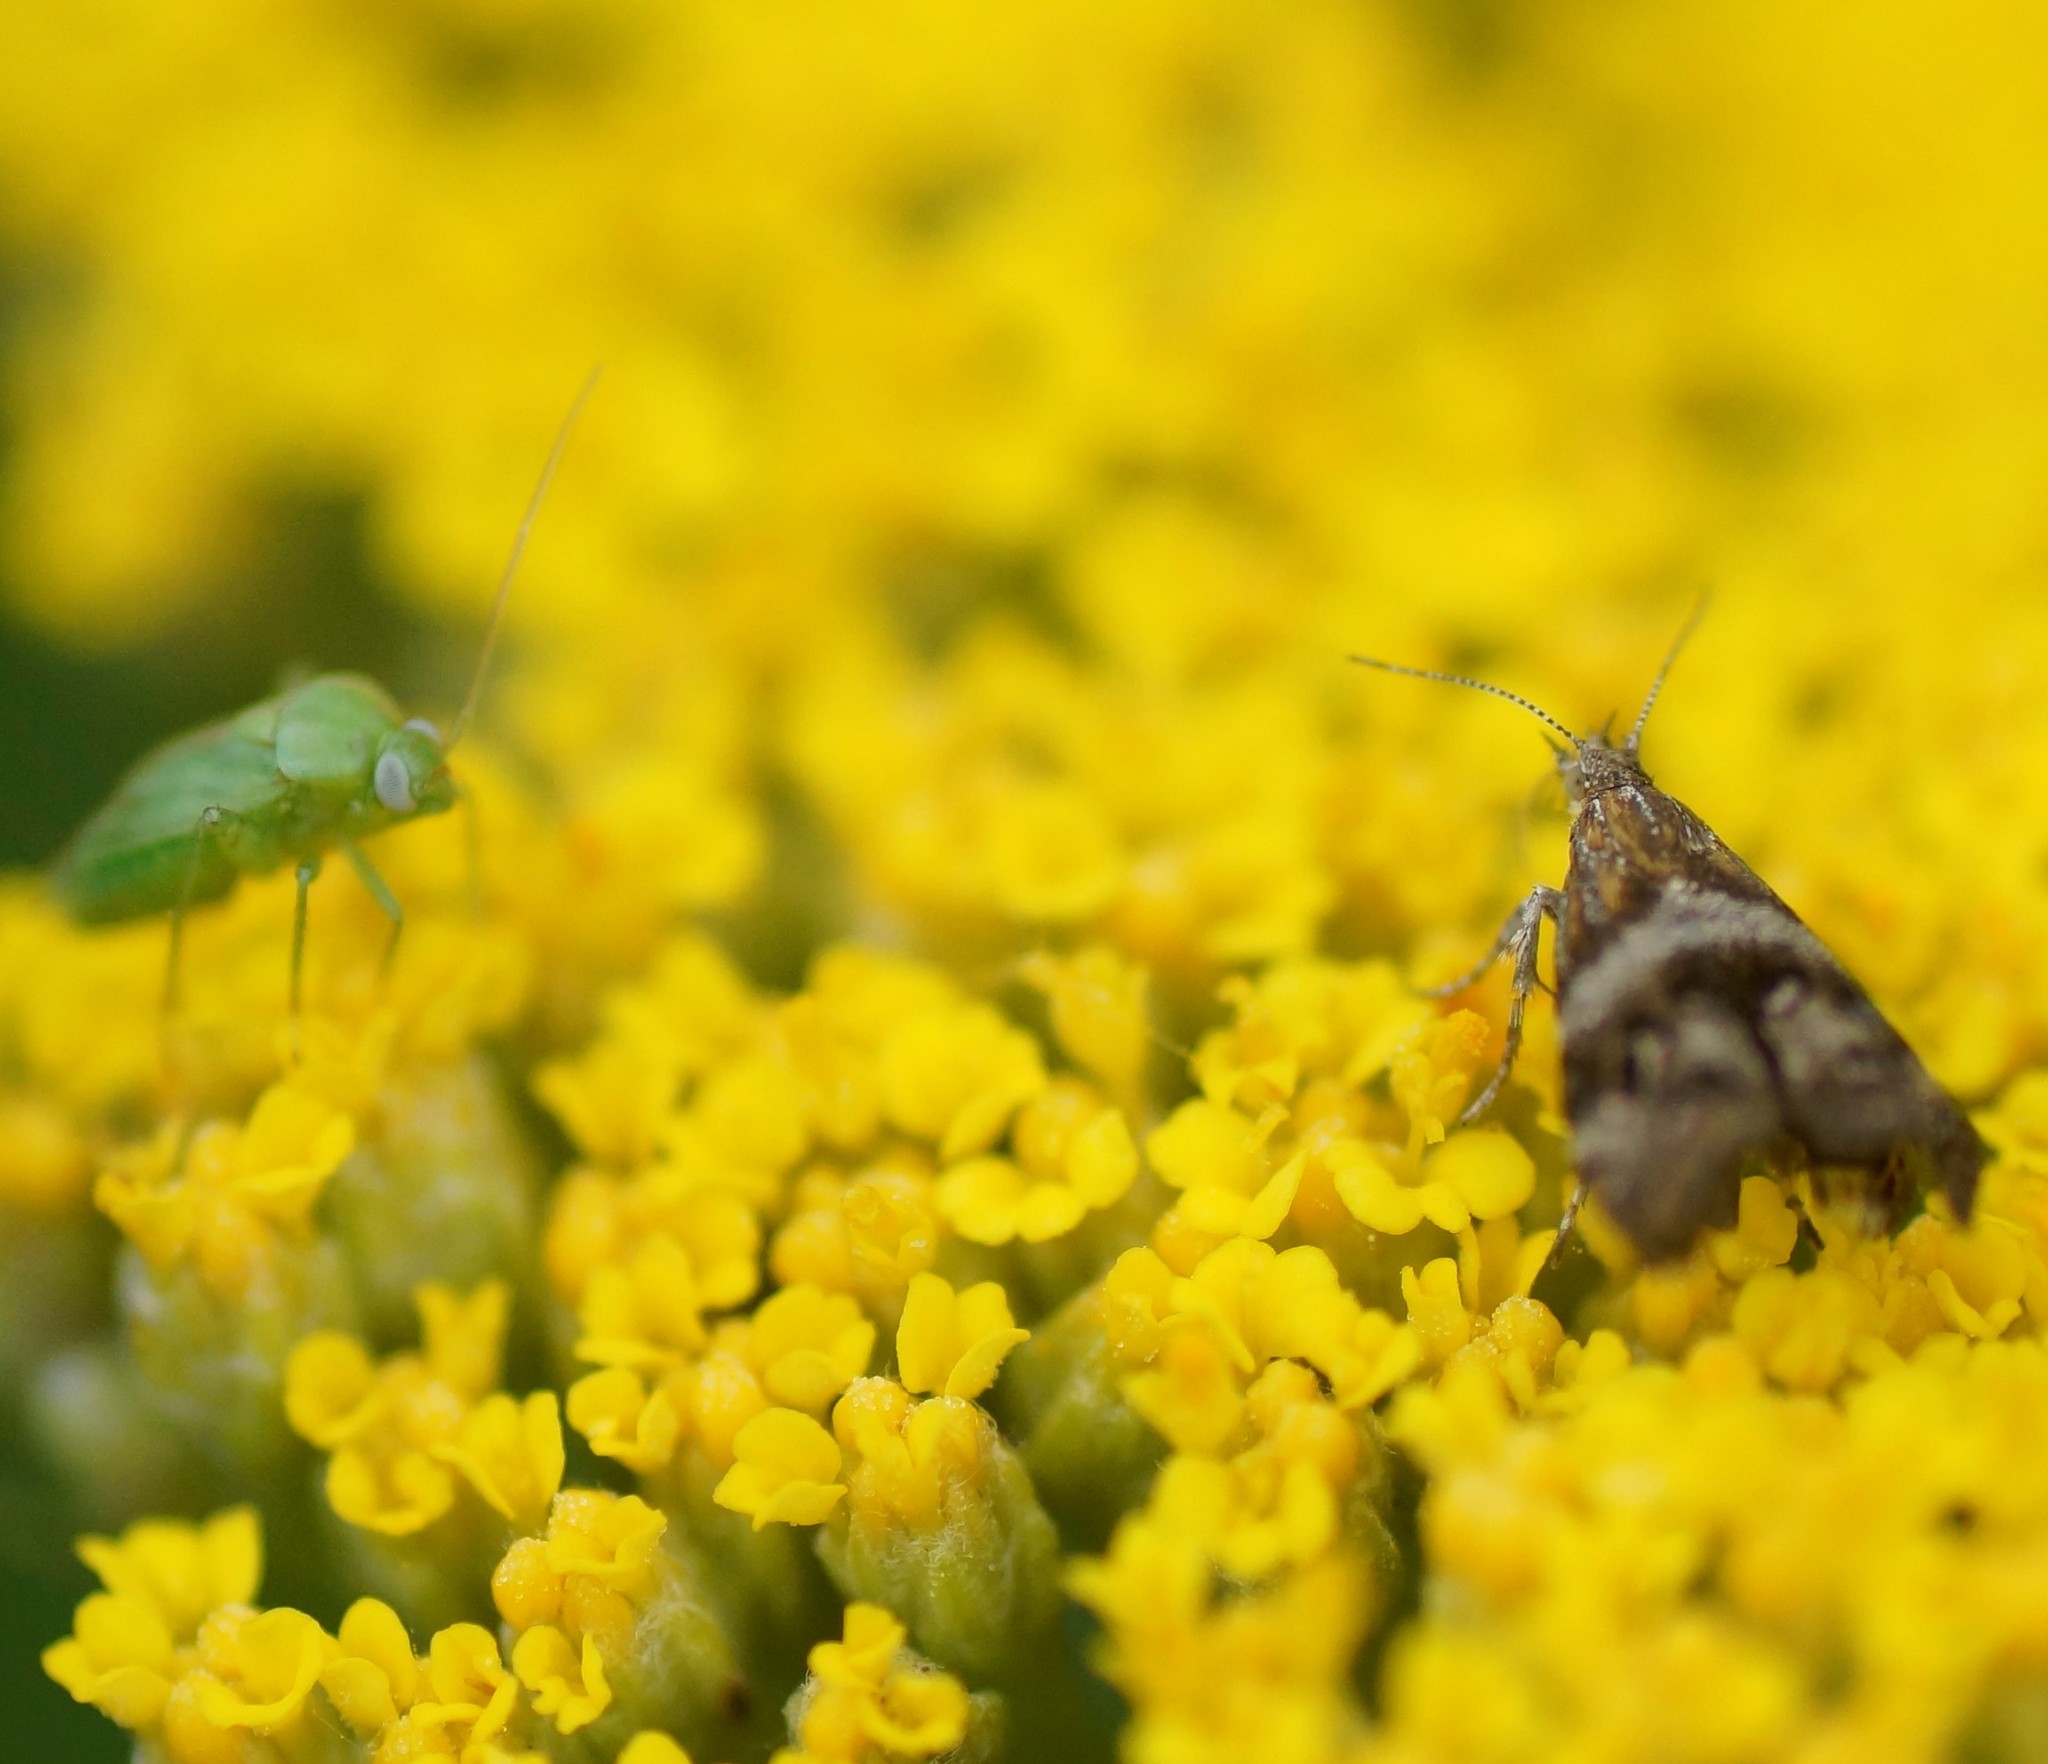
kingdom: Animalia
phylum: Arthropoda
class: Insecta
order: Lepidoptera
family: Choreutidae
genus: Tebenna
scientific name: Tebenna micalis
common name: Vagrant twitcher
